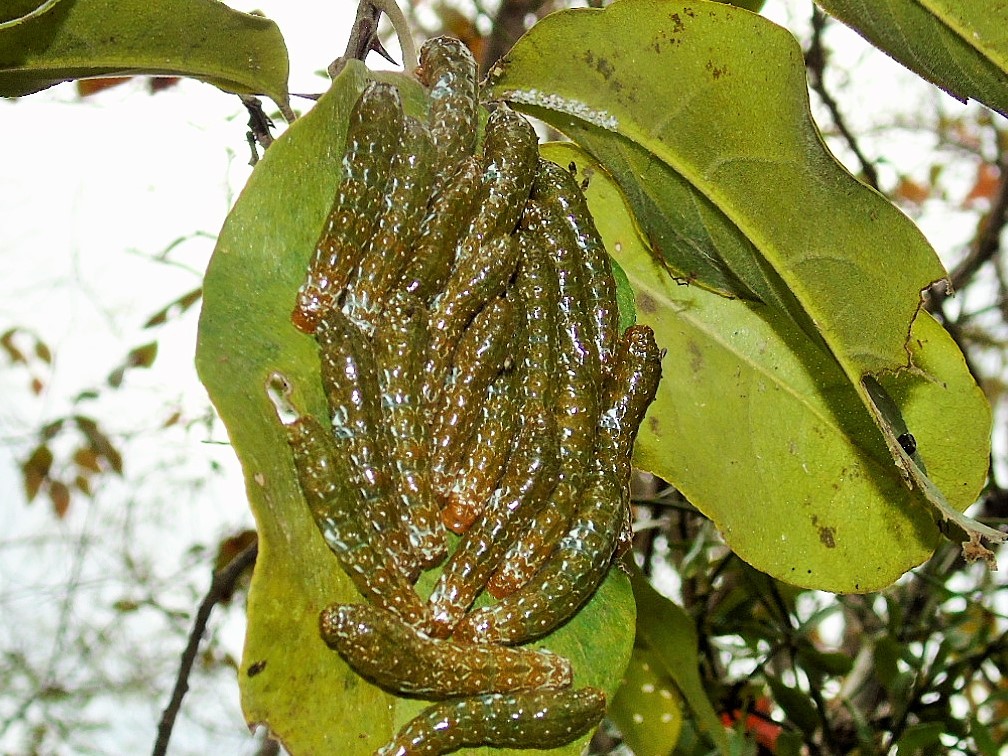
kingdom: Animalia
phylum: Arthropoda
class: Insecta
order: Lepidoptera
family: Papilionidae
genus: Papilio
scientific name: Papilio
